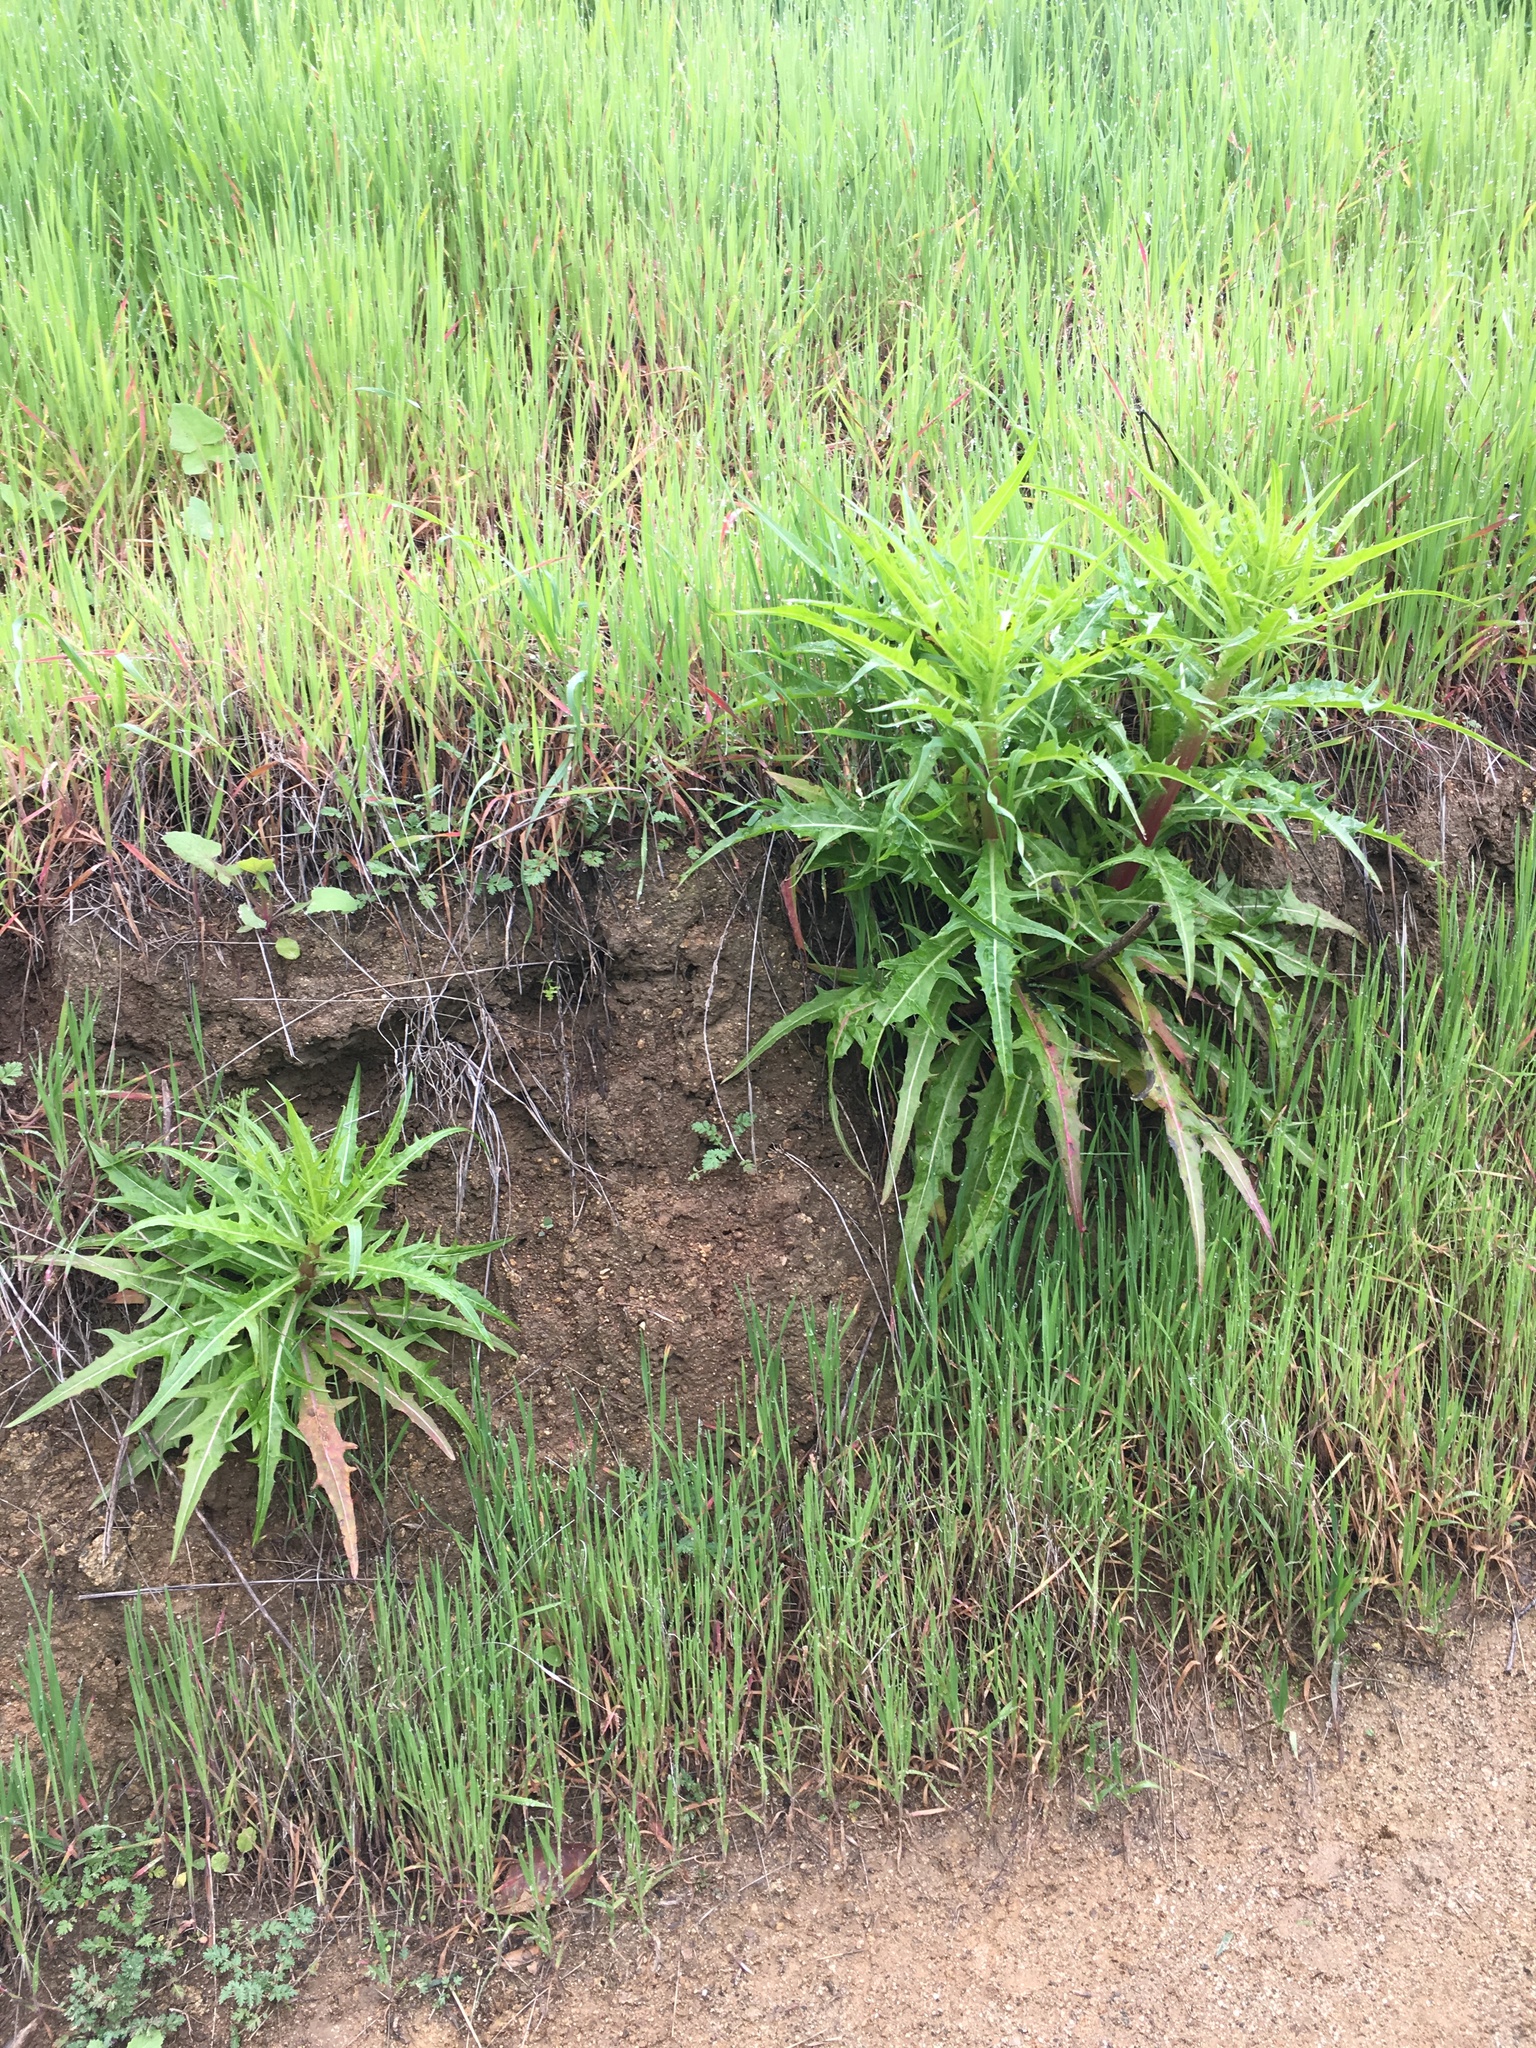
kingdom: Plantae
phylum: Tracheophyta
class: Magnoliopsida
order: Asterales
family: Asteraceae
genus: Malacothrix
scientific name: Malacothrix saxatilis
